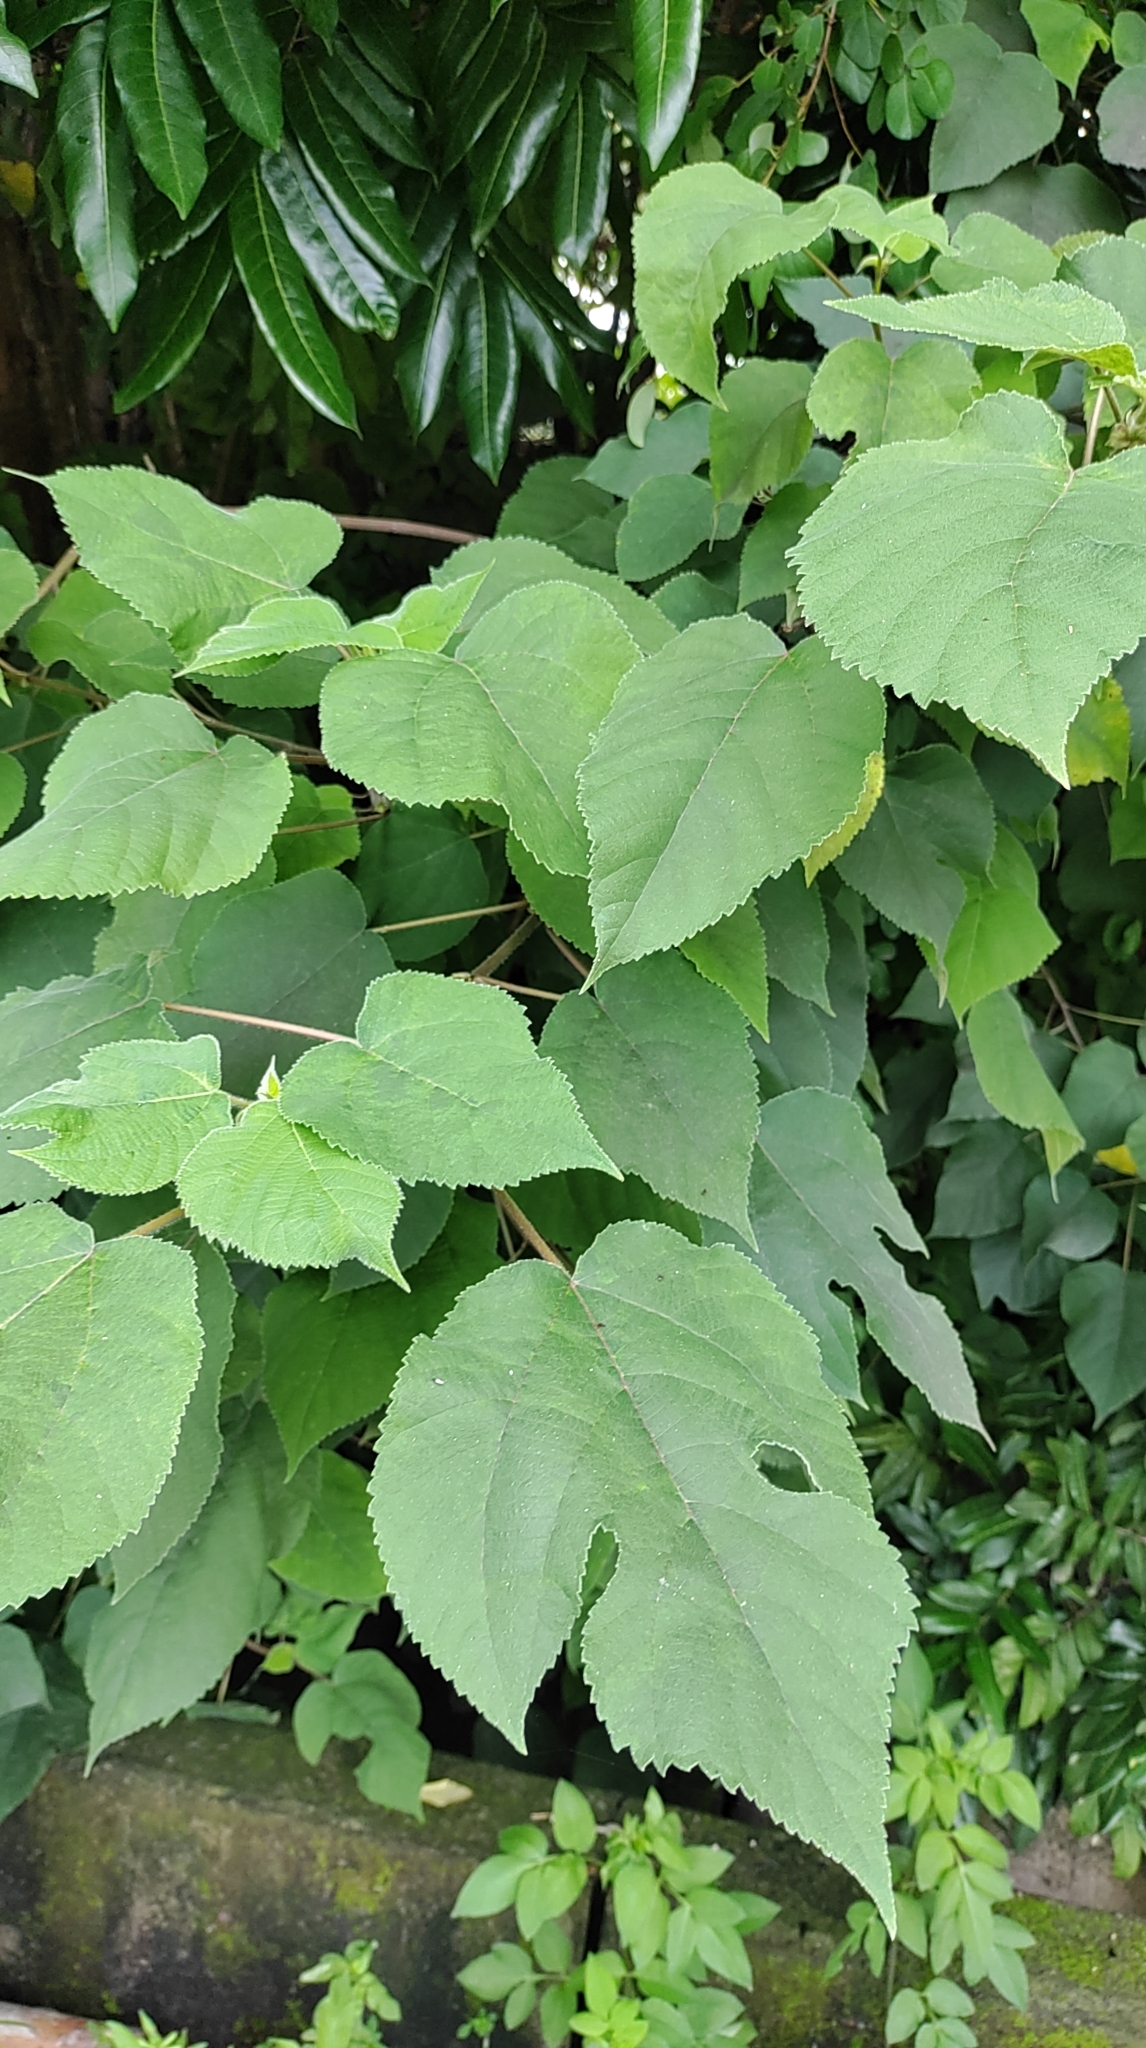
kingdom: Plantae
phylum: Tracheophyta
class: Magnoliopsida
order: Rosales
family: Moraceae
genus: Broussonetia
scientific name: Broussonetia papyrifera
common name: Paper mulberry
